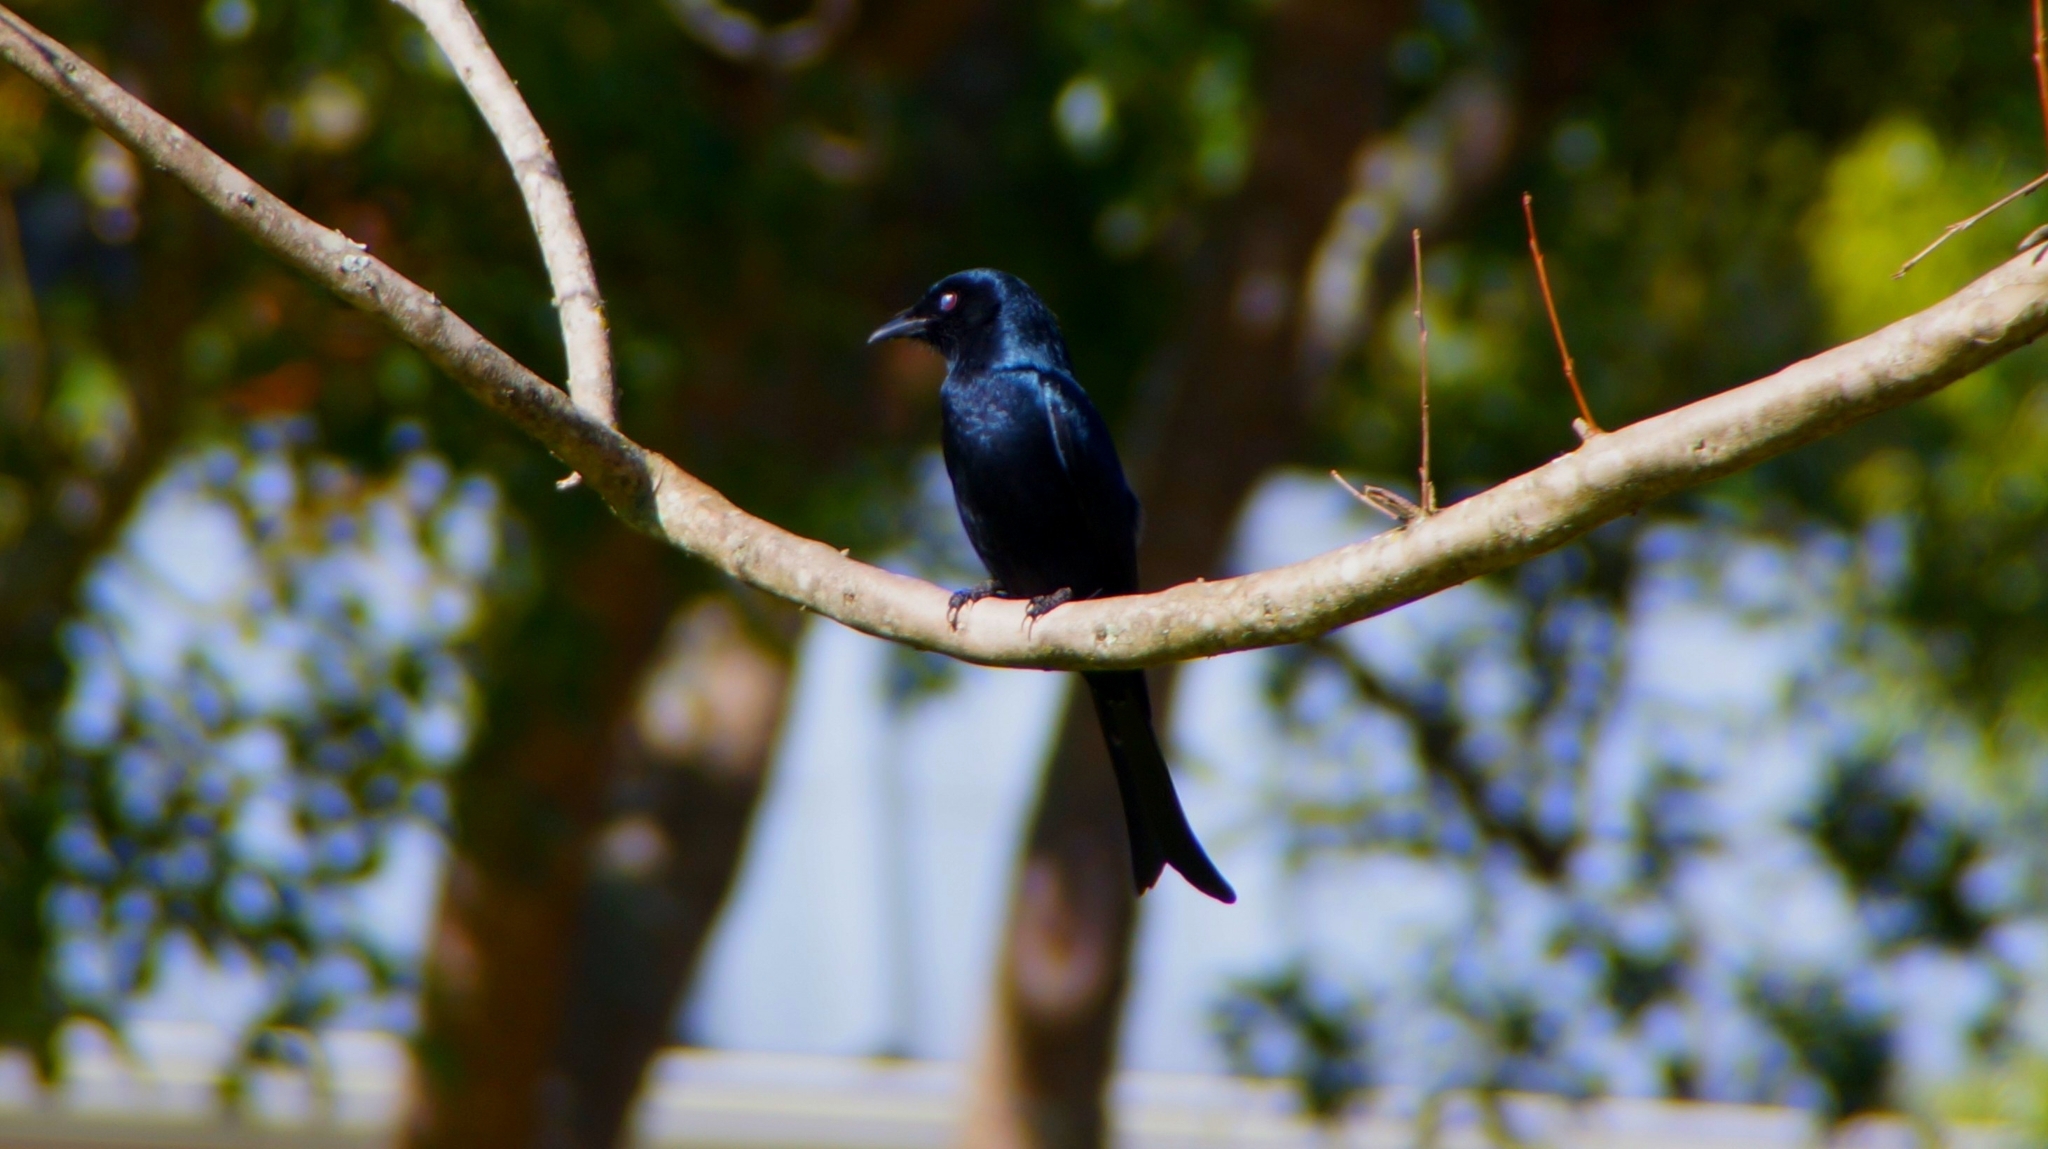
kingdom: Animalia
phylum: Chordata
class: Aves
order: Passeriformes
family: Dicruridae
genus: Dicrurus
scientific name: Dicrurus adsimilis
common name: Fork-tailed drongo
